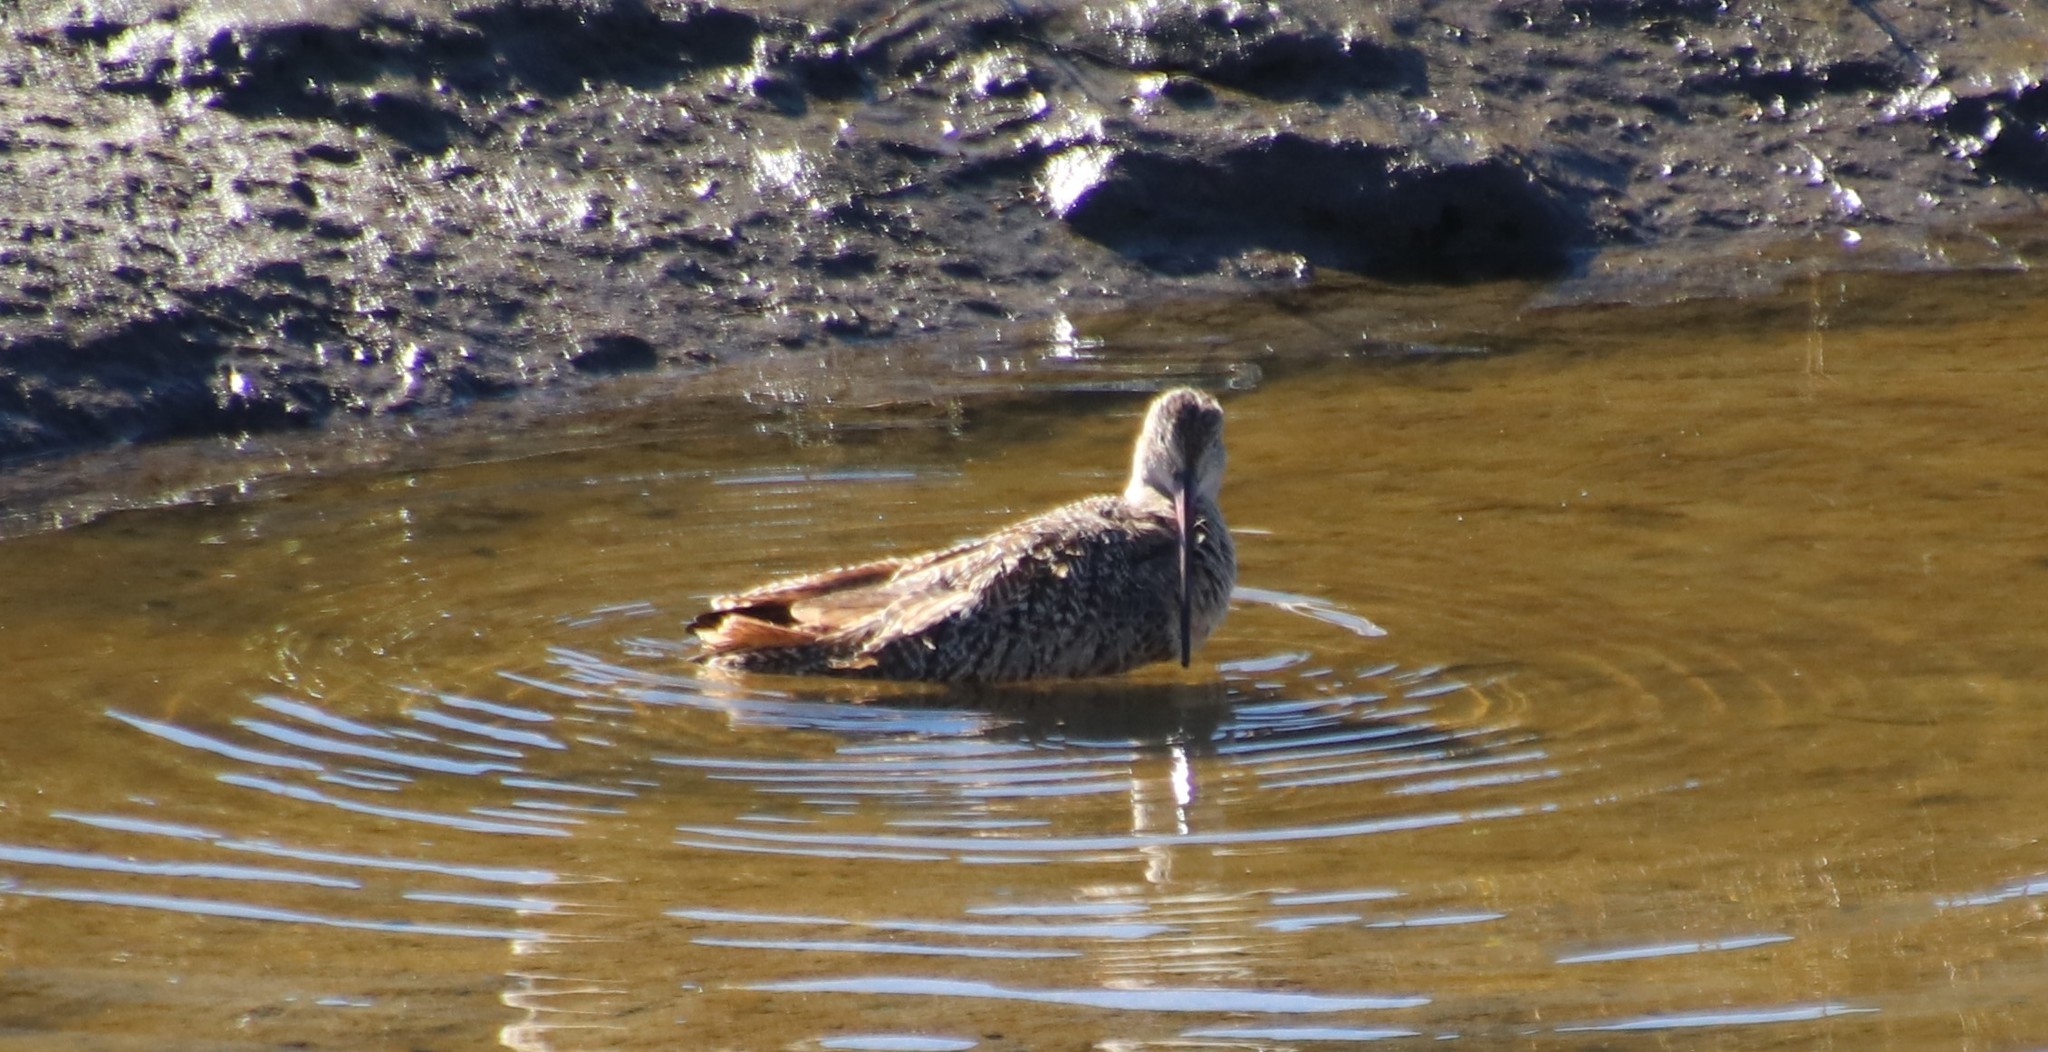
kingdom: Animalia
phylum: Chordata
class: Aves
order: Charadriiformes
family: Scolopacidae
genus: Limosa
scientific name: Limosa fedoa
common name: Marbled godwit
